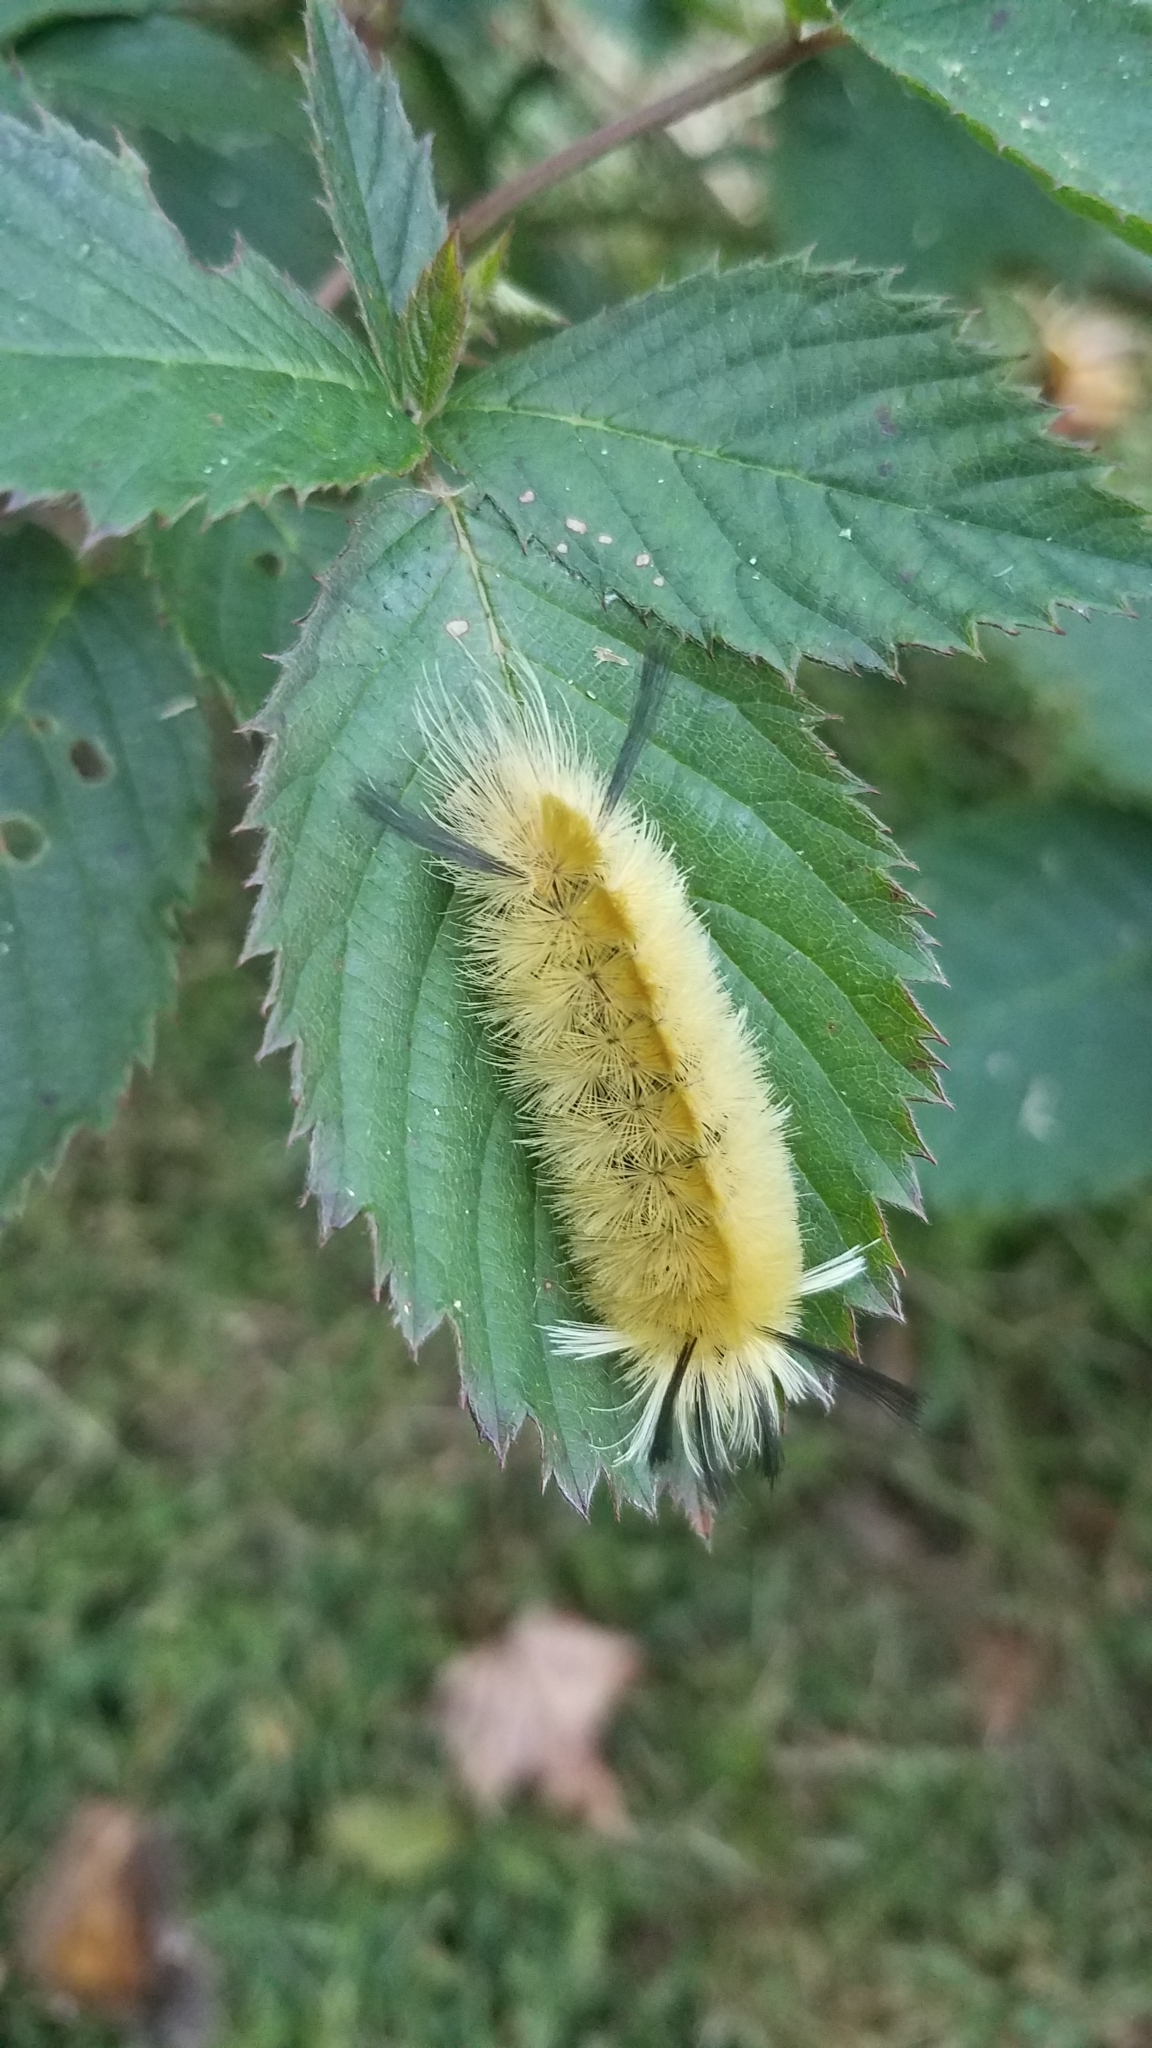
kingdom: Animalia
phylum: Arthropoda
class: Insecta
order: Lepidoptera
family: Erebidae
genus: Halysidota
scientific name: Halysidota tessellaris
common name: Banded tussock moth
